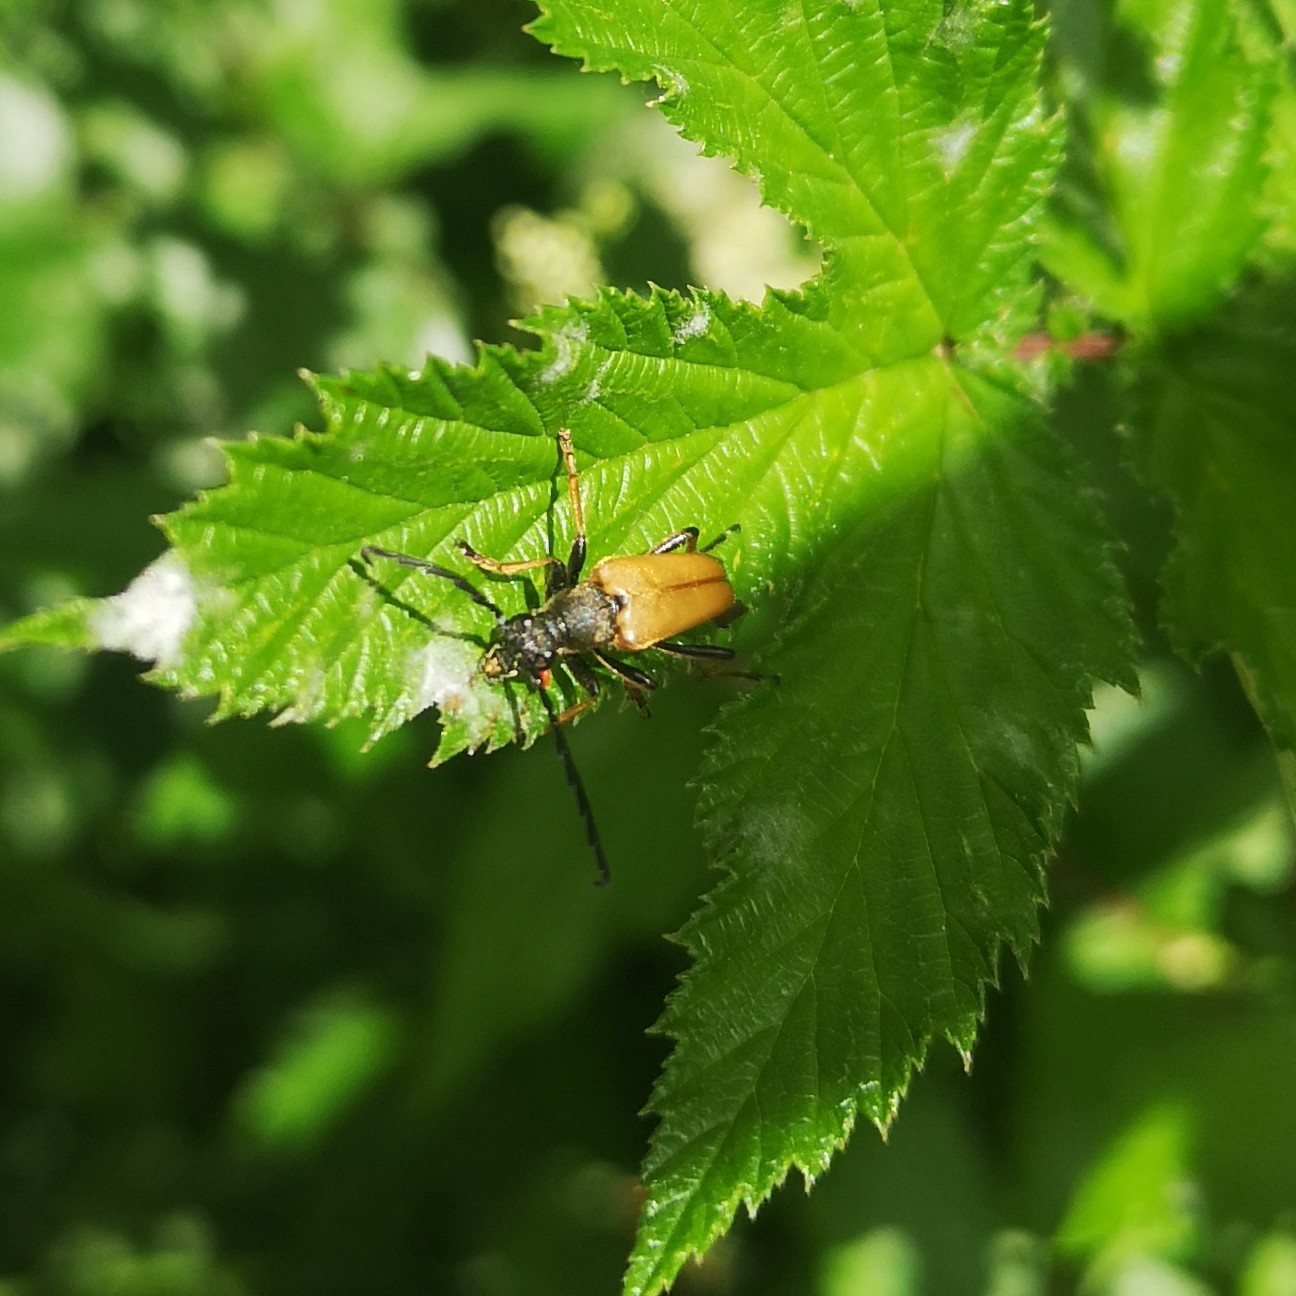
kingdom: Animalia
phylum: Arthropoda
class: Insecta
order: Coleoptera
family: Cerambycidae
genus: Stictoleptura
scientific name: Stictoleptura rubra
